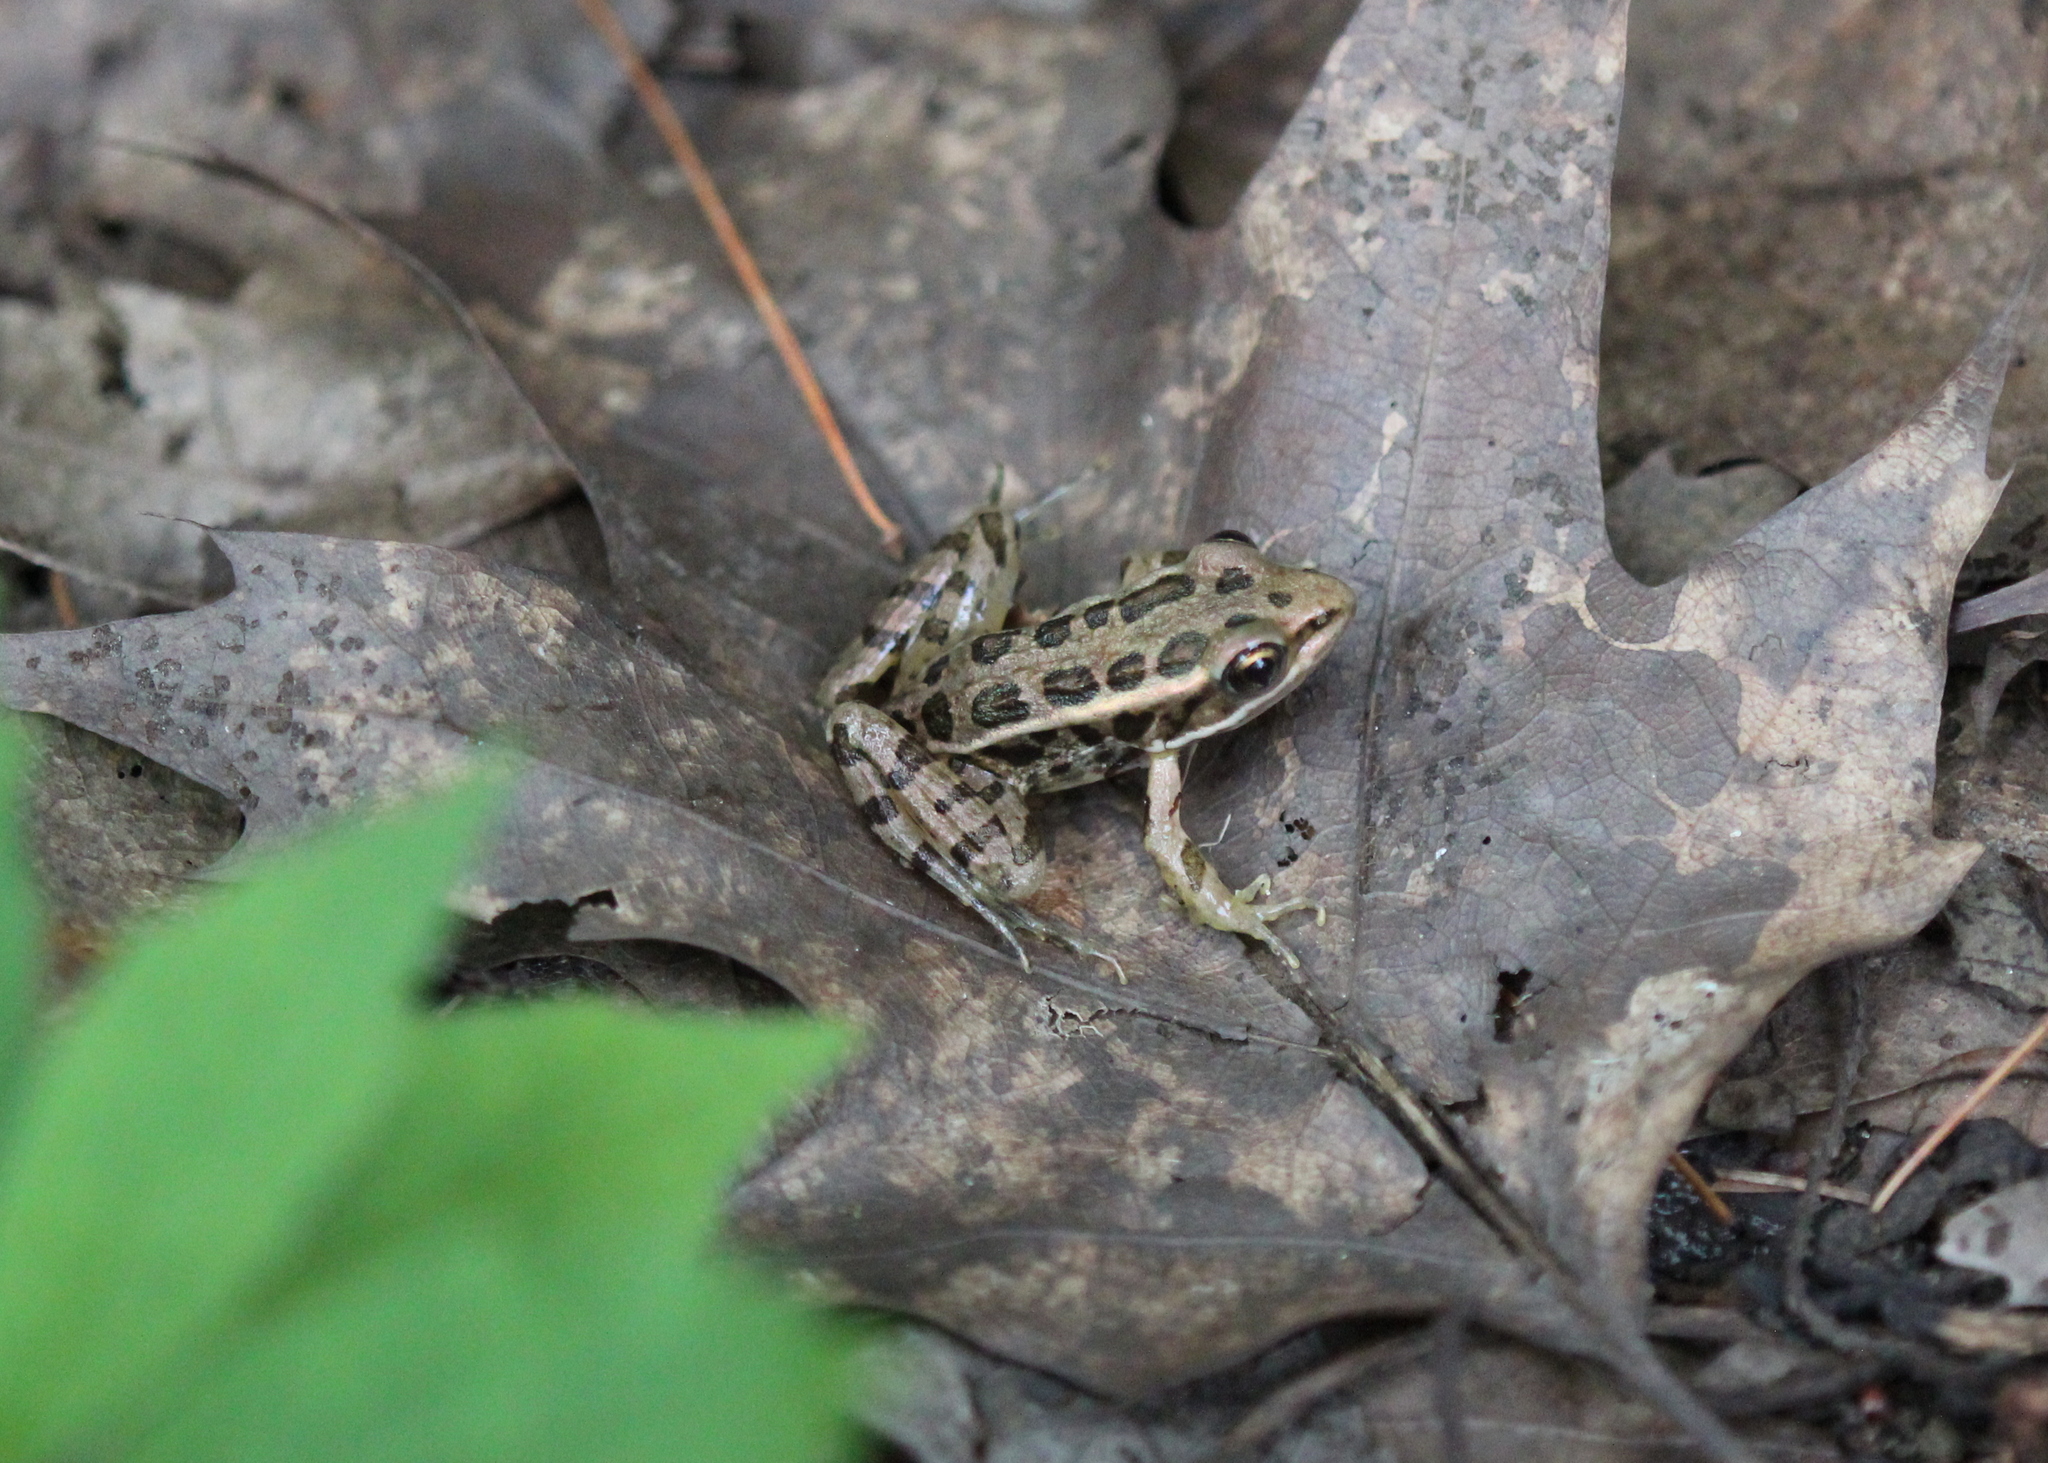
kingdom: Animalia
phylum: Chordata
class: Amphibia
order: Anura
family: Ranidae
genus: Lithobates
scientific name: Lithobates palustris
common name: Pickerel frog
